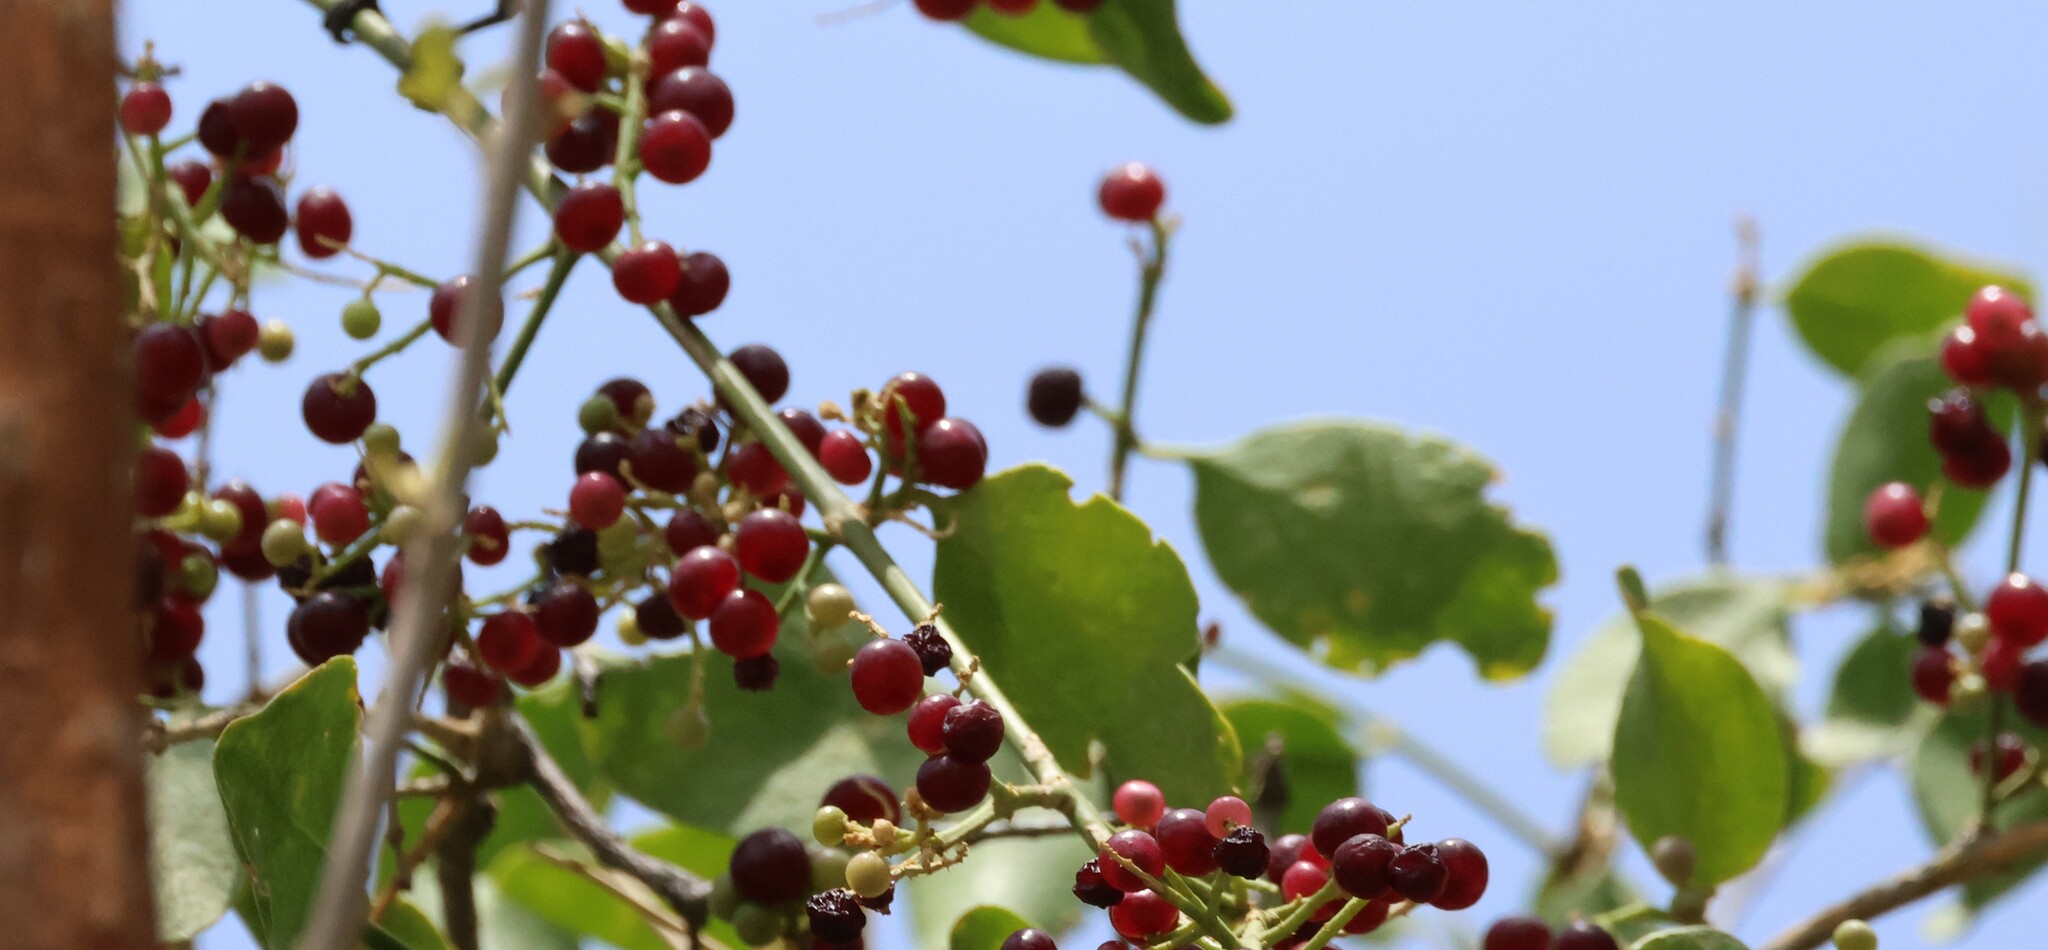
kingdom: Plantae
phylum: Tracheophyta
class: Magnoliopsida
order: Brassicales
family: Salvadoraceae
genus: Salvadora
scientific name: Salvadora persica
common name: Toothbrushtree
